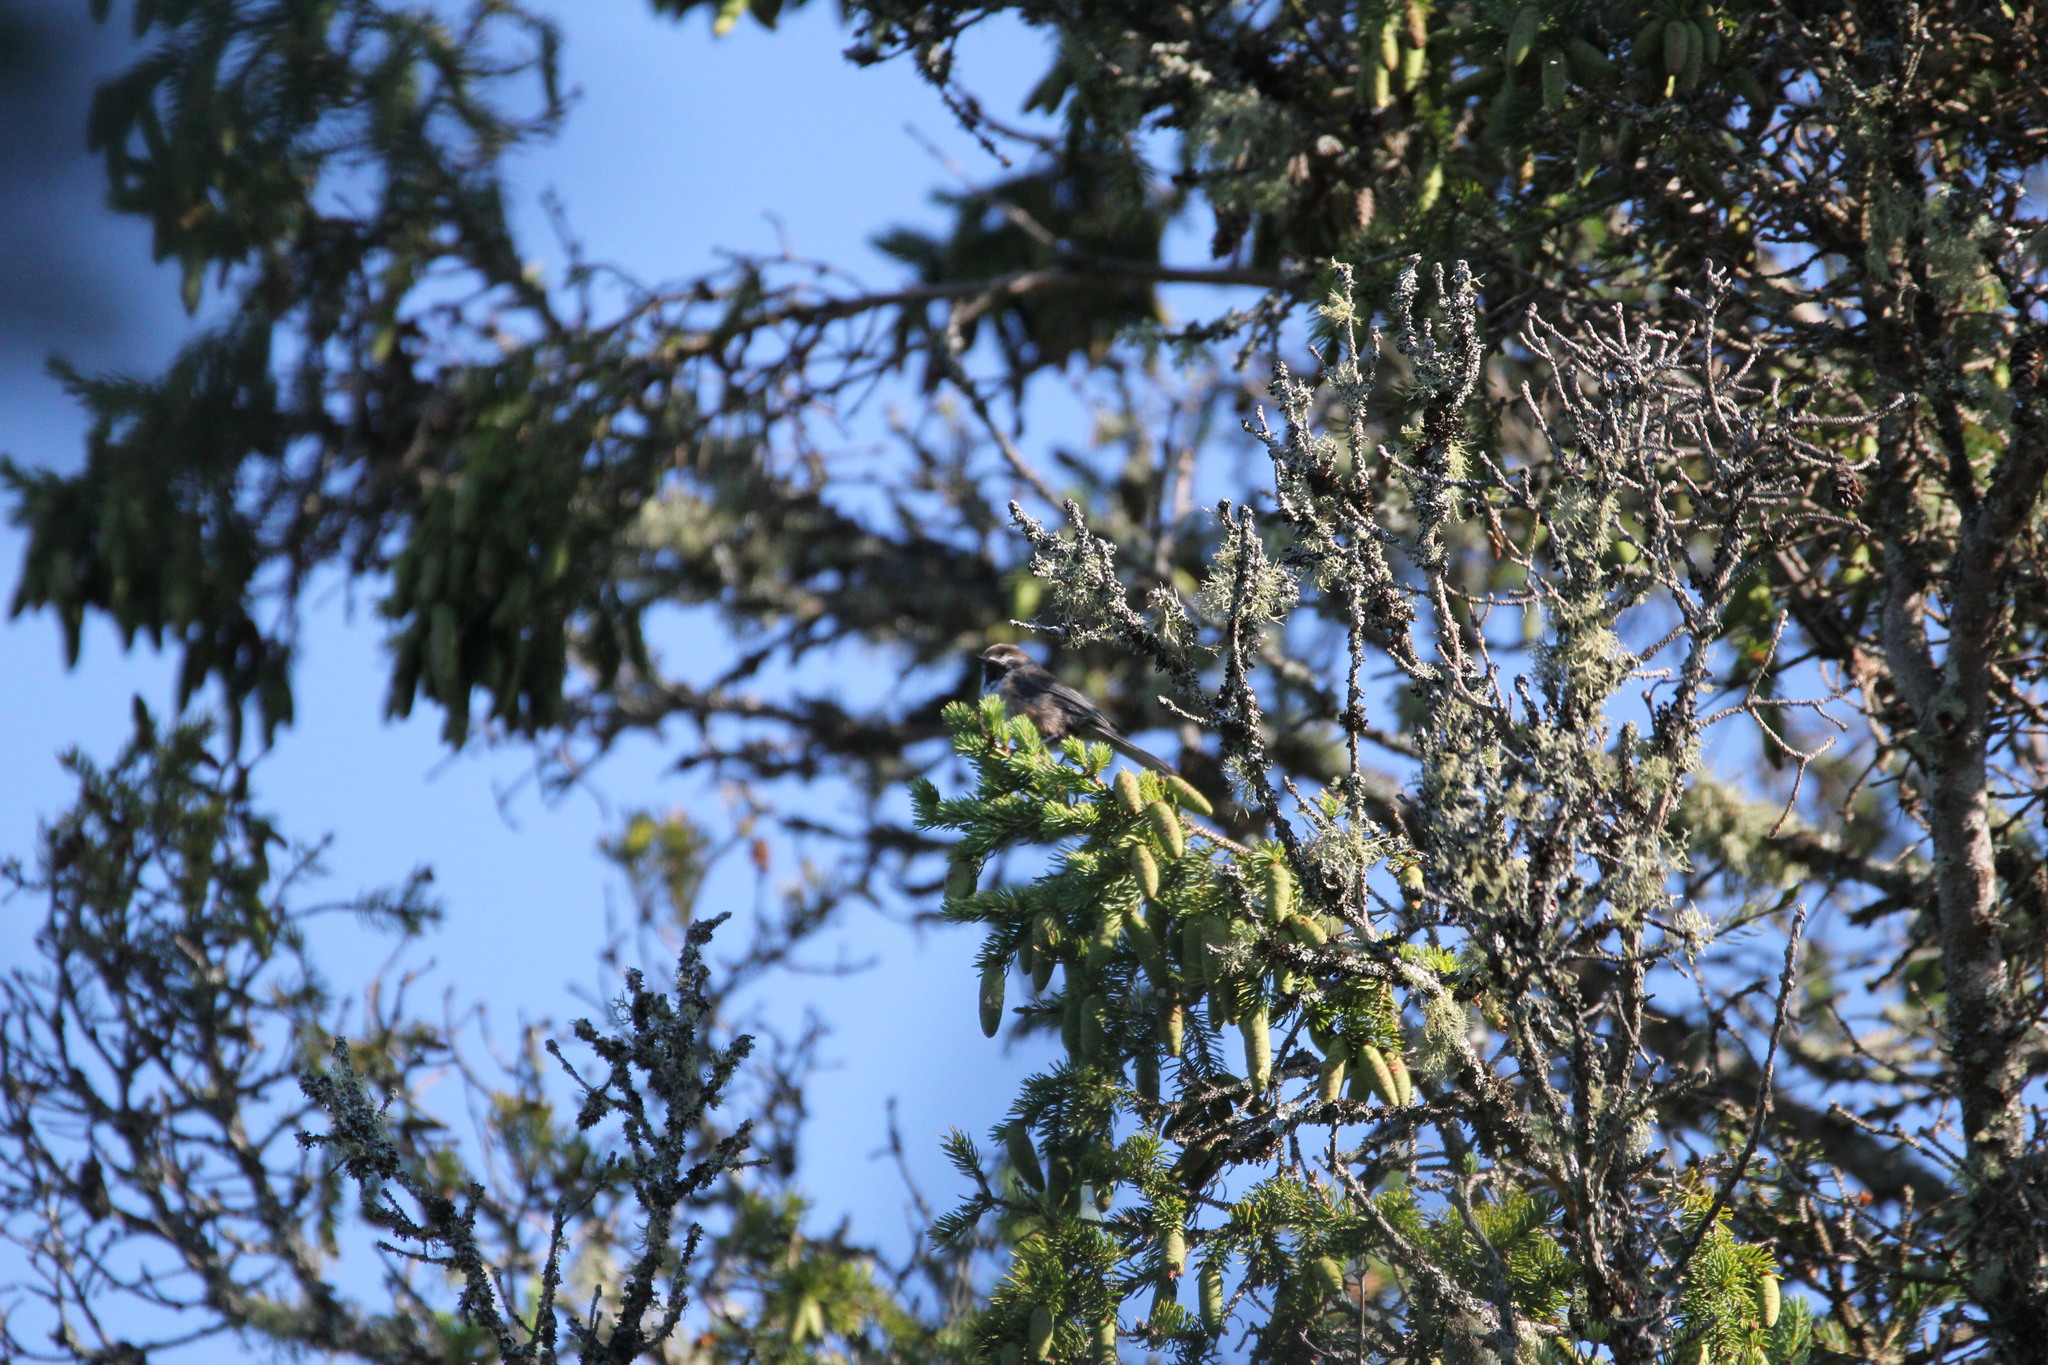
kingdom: Animalia
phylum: Chordata
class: Aves
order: Passeriformes
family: Paridae
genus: Poecile
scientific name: Poecile hudsonicus
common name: Boreal chickadee
